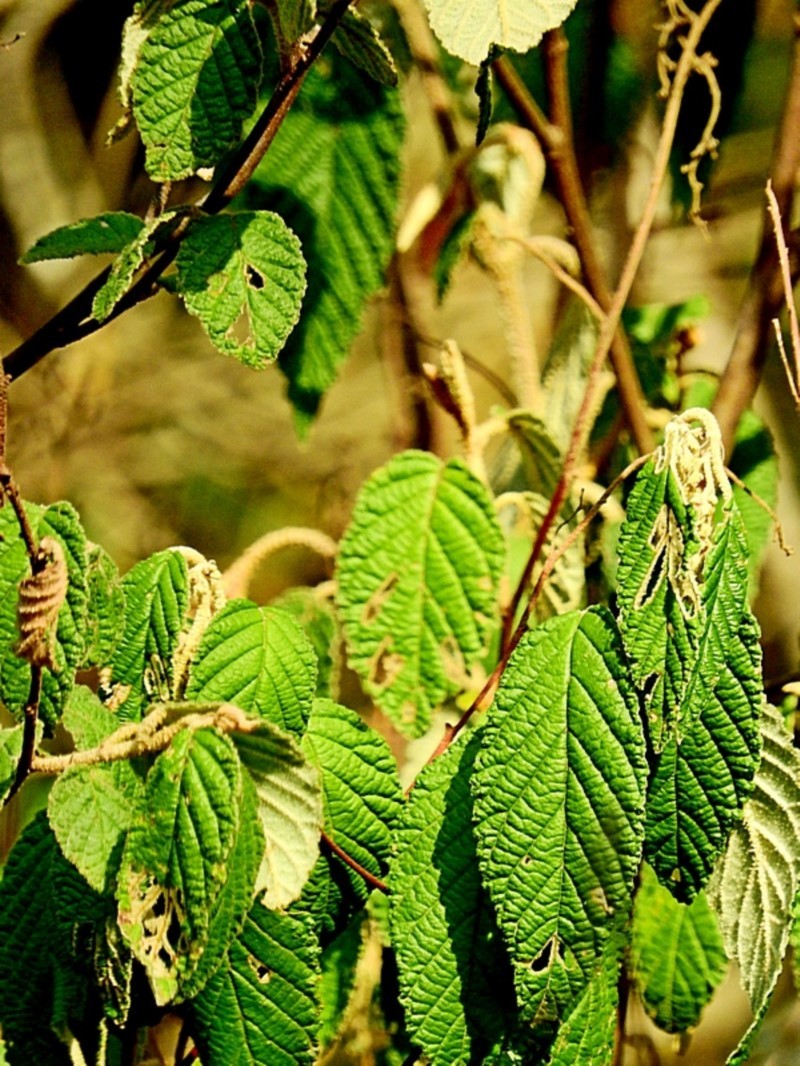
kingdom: Plantae
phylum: Tracheophyta
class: Magnoliopsida
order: Rosales
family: Rhamnaceae
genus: Pomaderris
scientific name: Pomaderris aspera
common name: Hazel pomaderris
